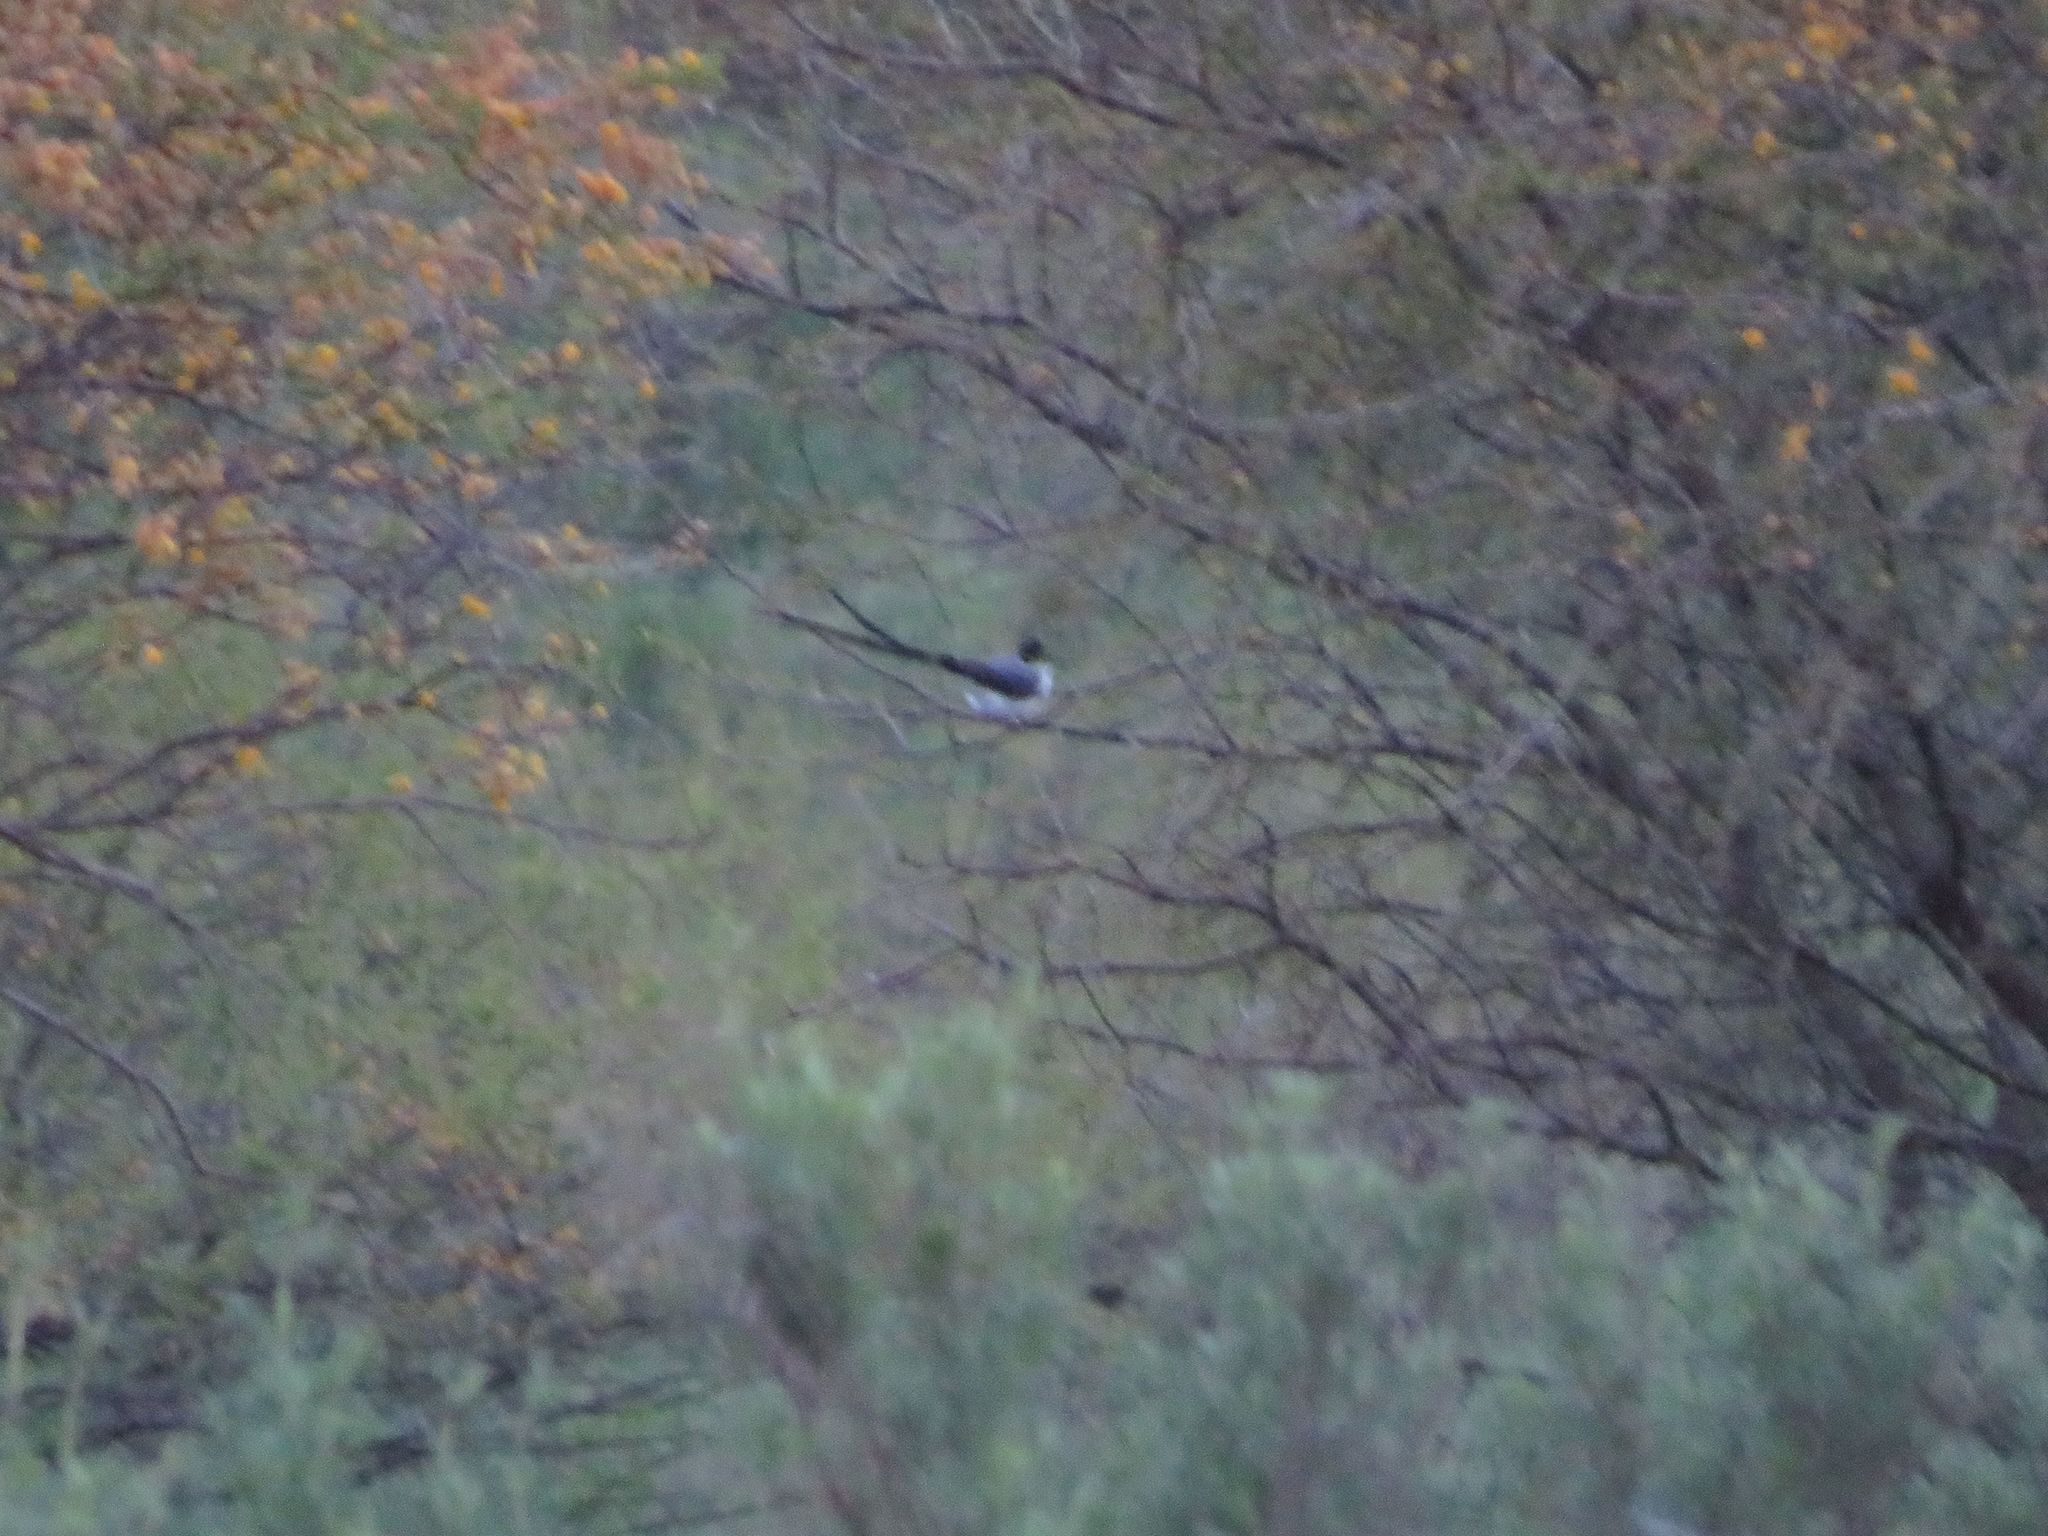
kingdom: Animalia
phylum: Chordata
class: Aves
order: Passeriformes
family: Tyrannidae
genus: Tyrannus
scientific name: Tyrannus savana
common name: Fork-tailed flycatcher
